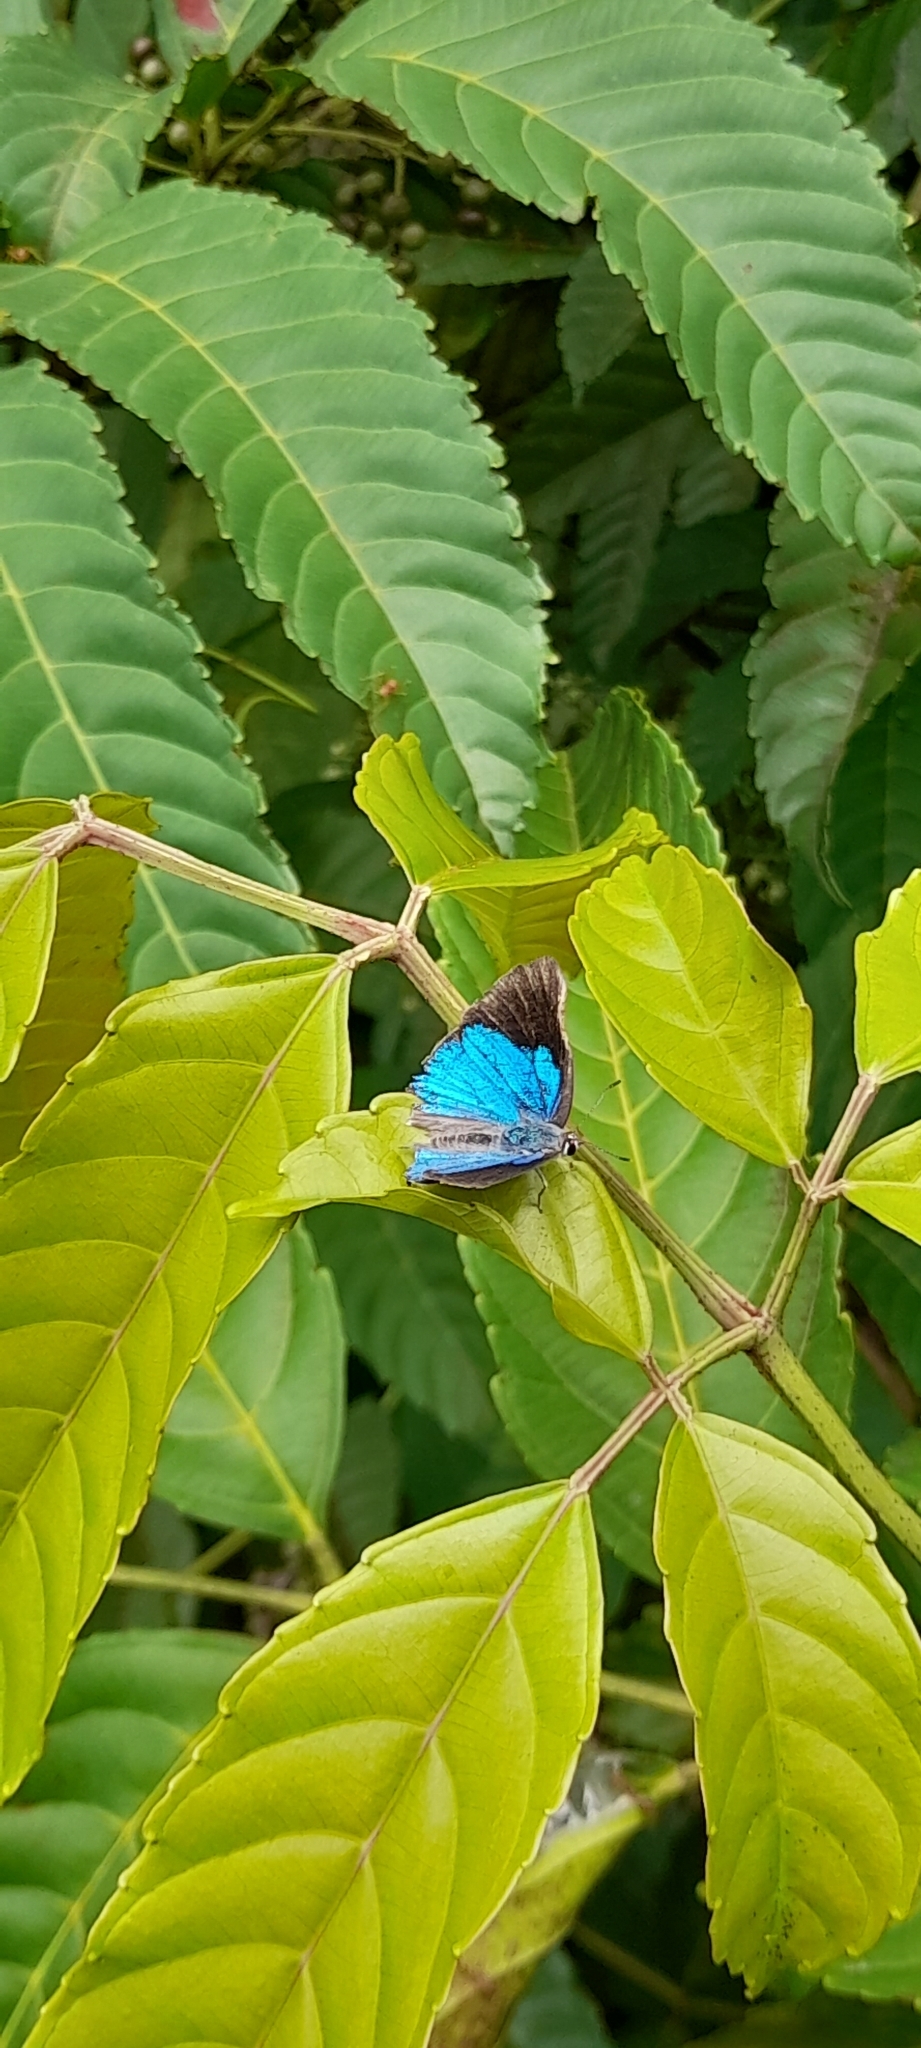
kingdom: Animalia
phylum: Arthropoda
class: Insecta
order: Lepidoptera
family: Lycaenidae
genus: Tajuria
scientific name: Tajuria cippus
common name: Peacock royal
